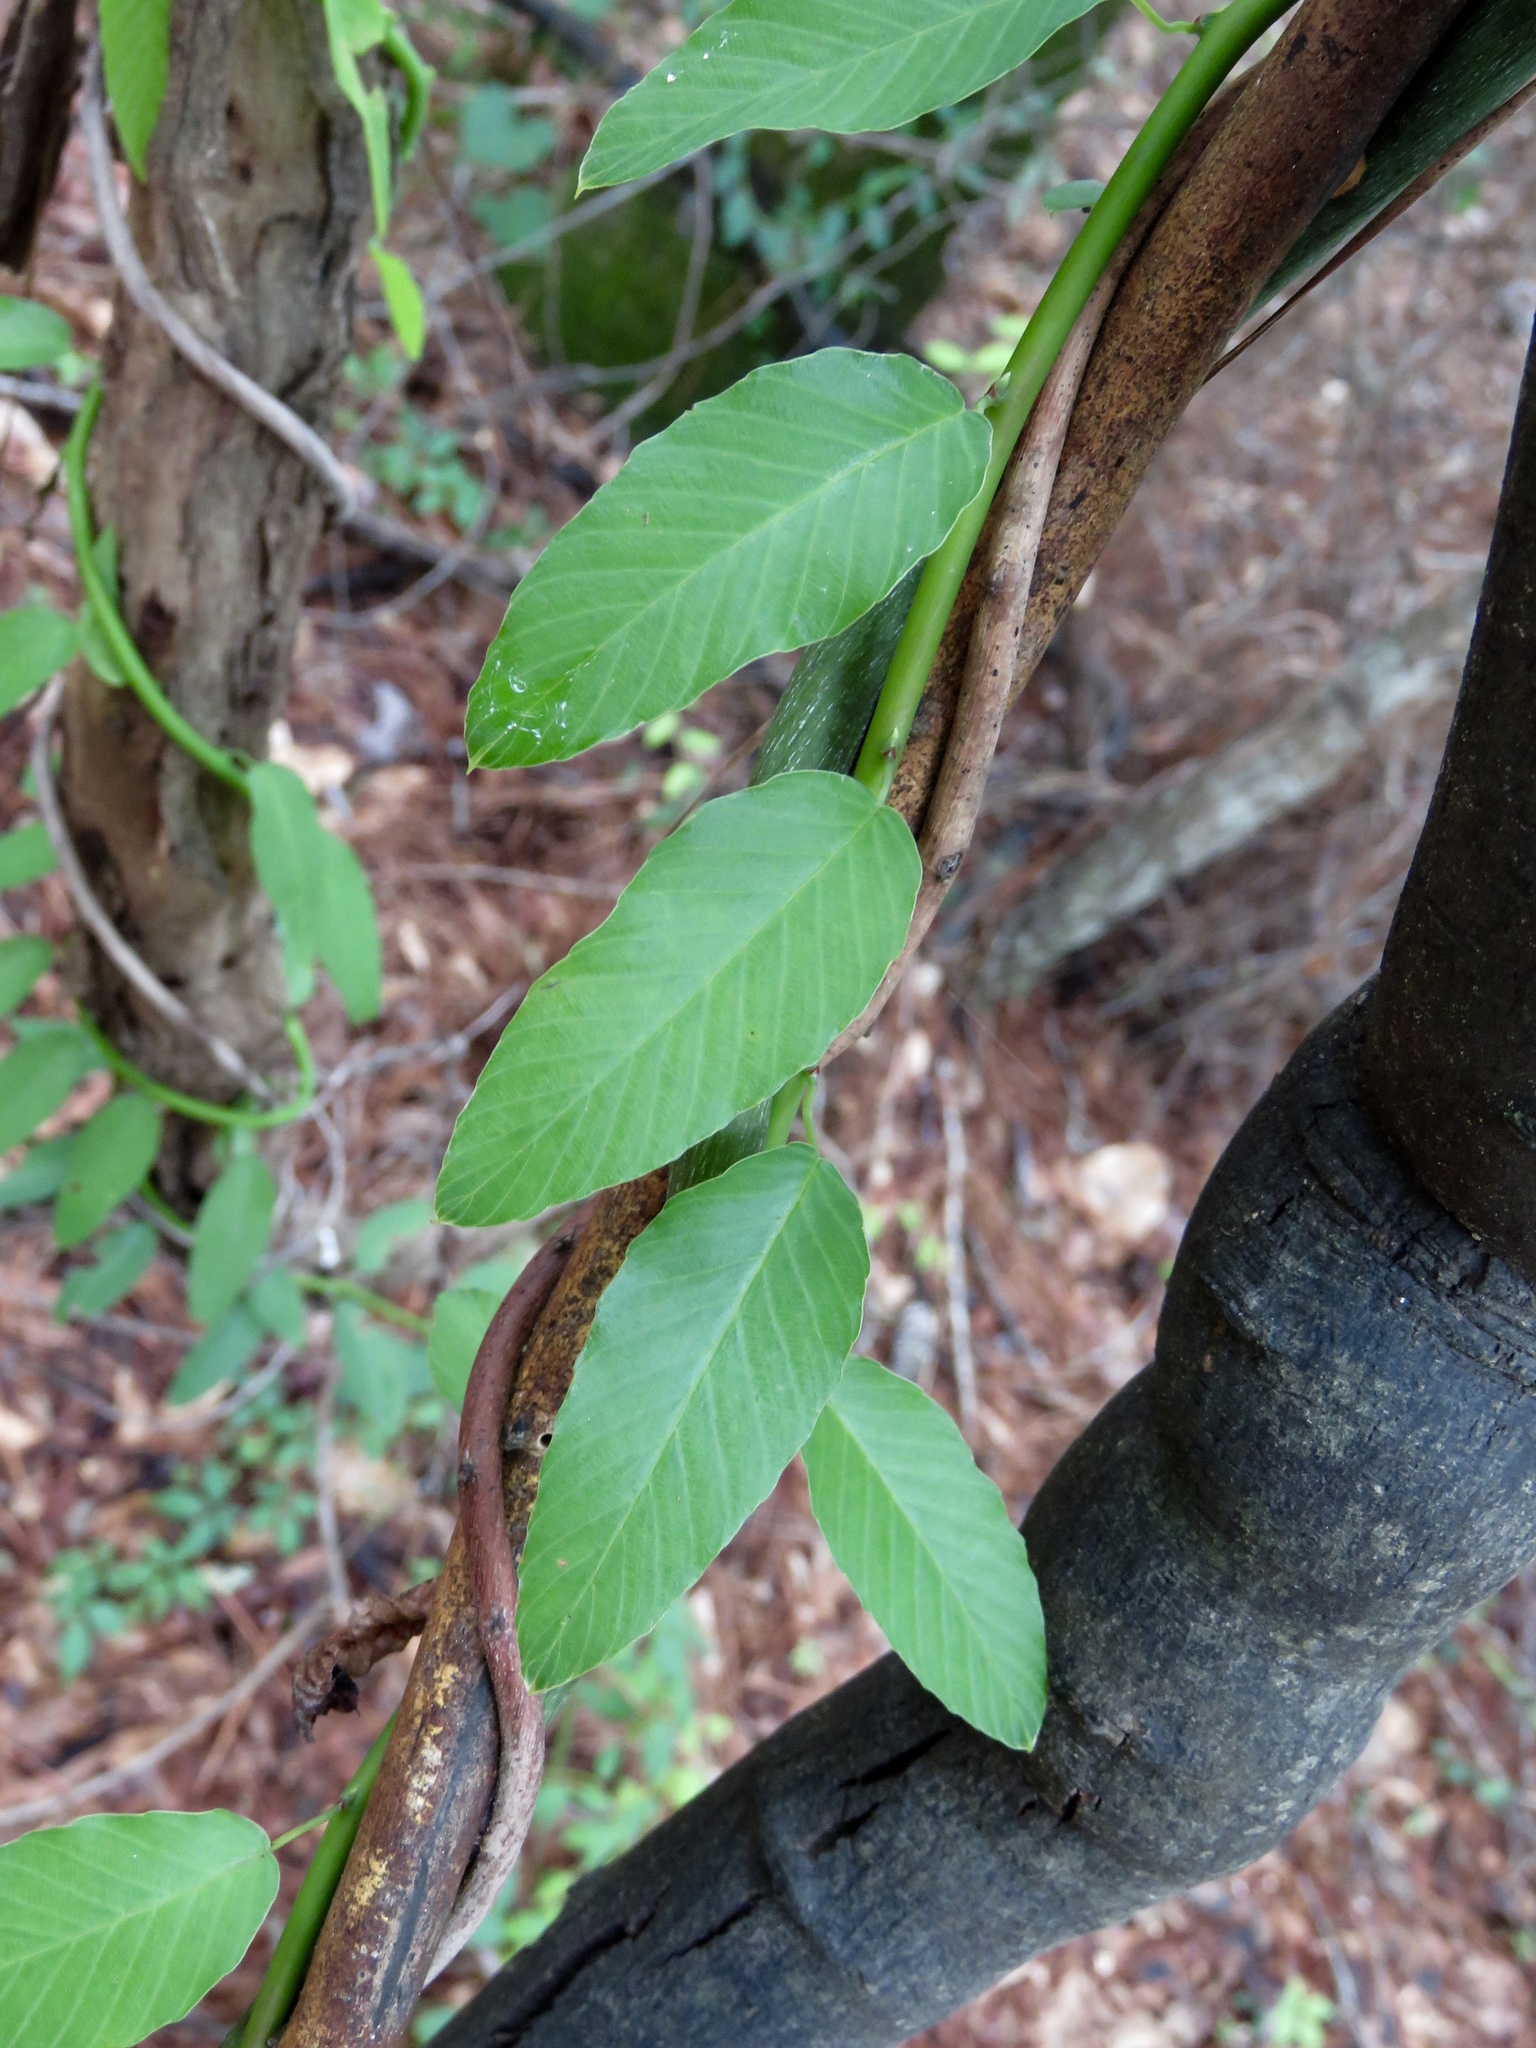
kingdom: Plantae
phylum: Tracheophyta
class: Magnoliopsida
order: Rosales
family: Rhamnaceae
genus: Berchemia
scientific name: Berchemia scandens
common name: Supplejack
